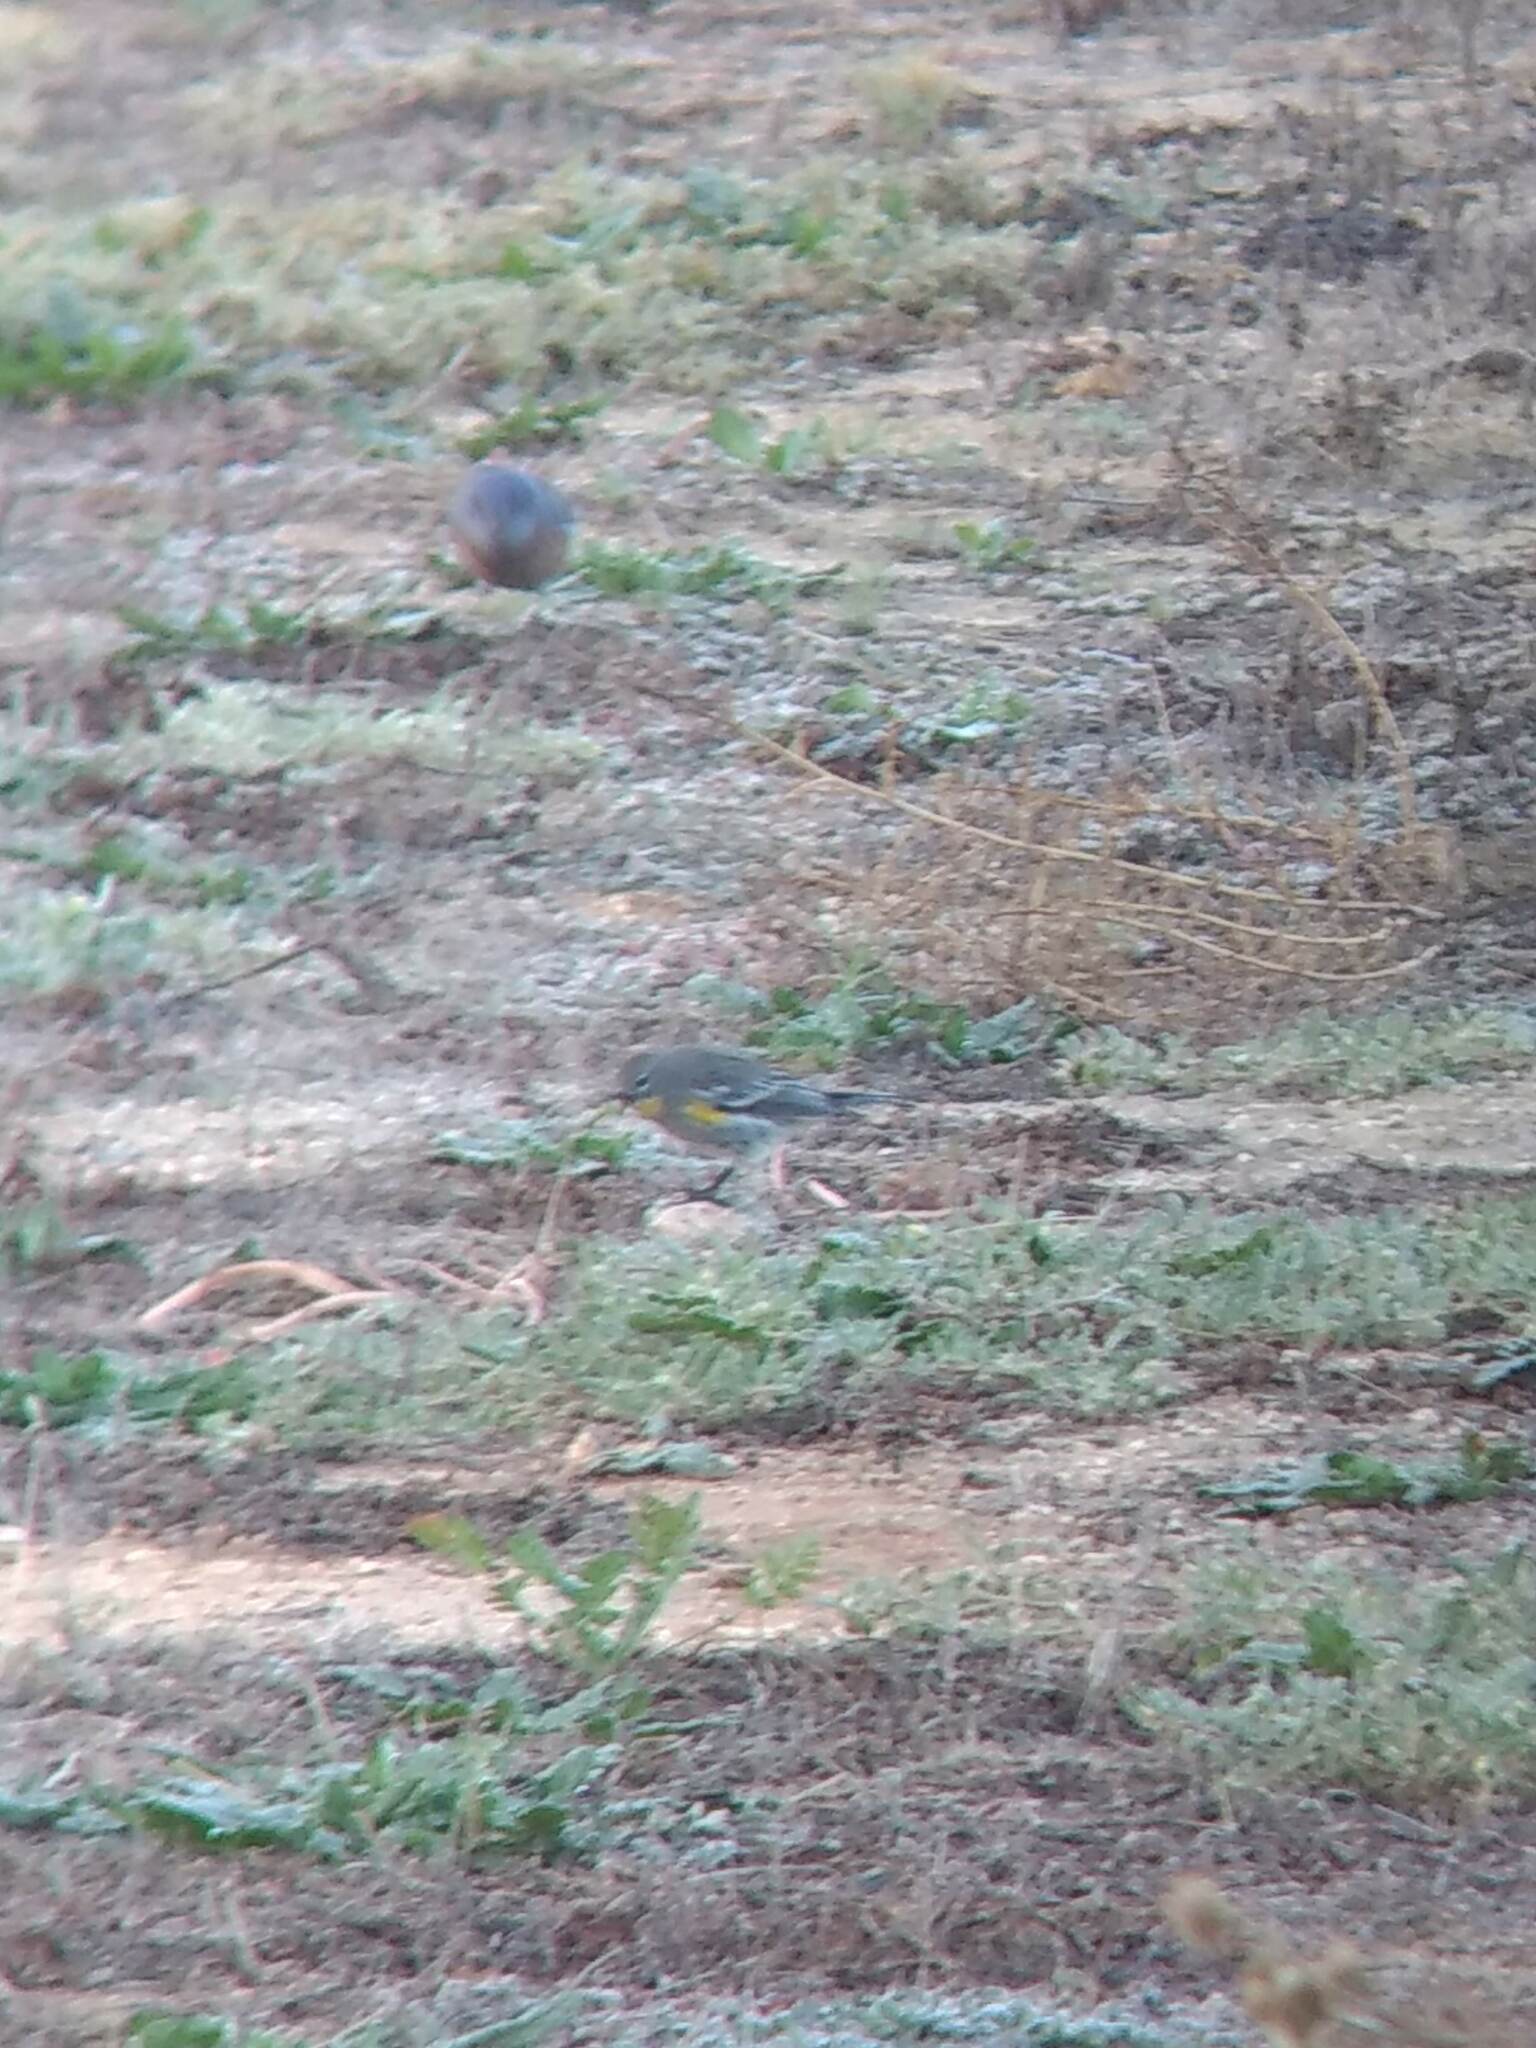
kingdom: Animalia
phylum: Chordata
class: Aves
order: Passeriformes
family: Parulidae
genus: Setophaga
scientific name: Setophaga coronata
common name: Myrtle warbler
